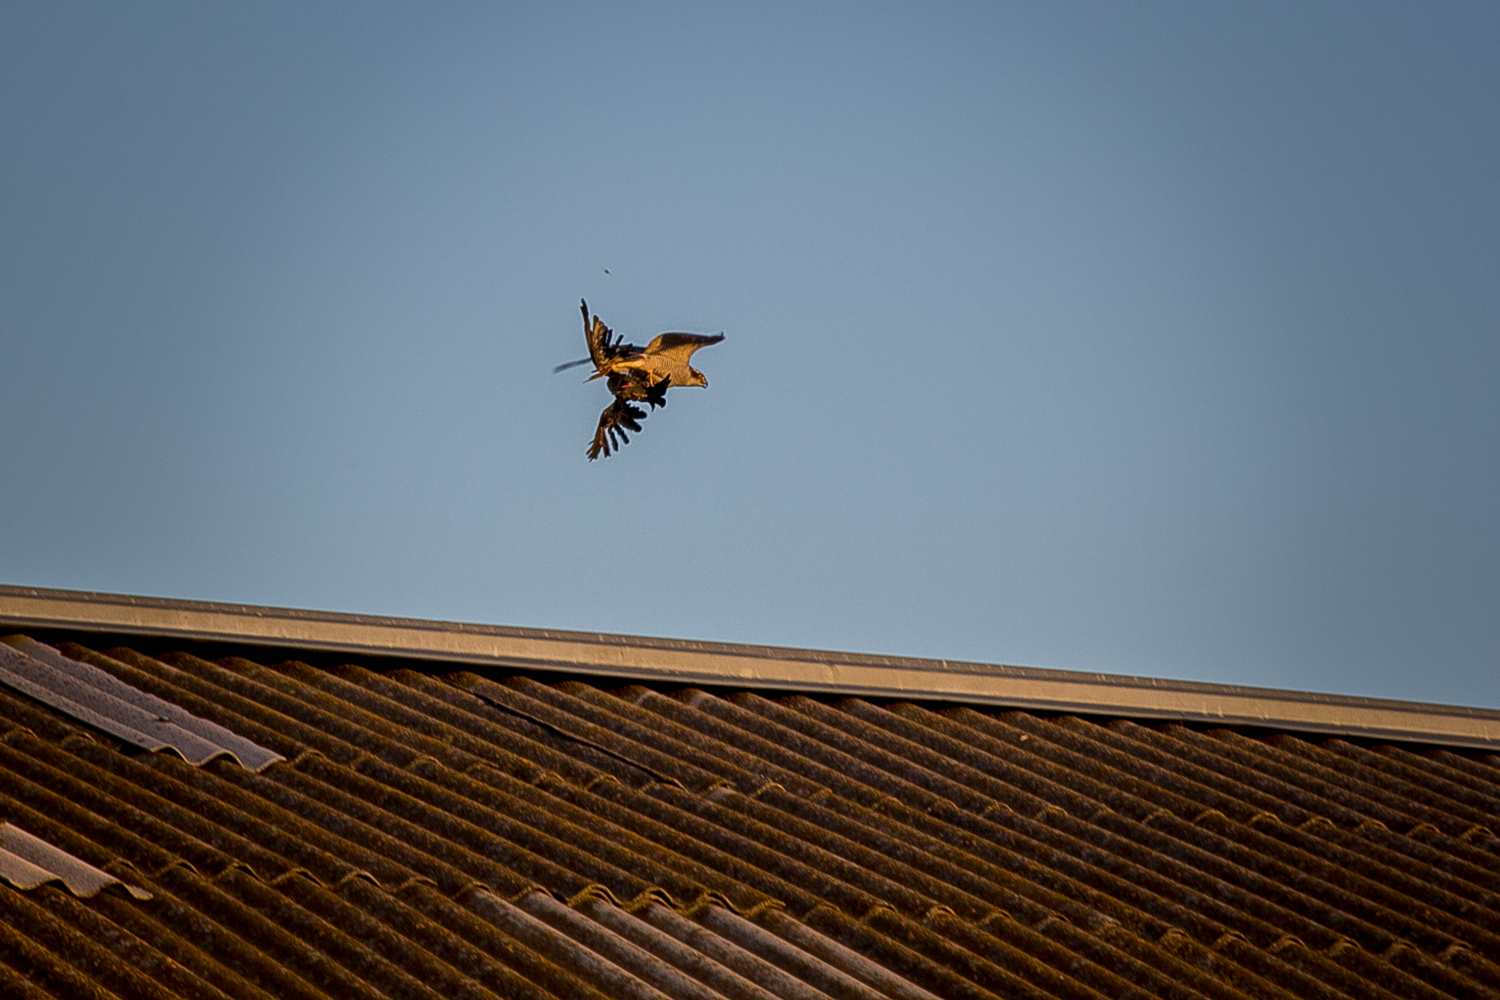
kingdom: Animalia
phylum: Chordata
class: Aves
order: Accipitriformes
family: Accipitridae
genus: Accipiter
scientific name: Accipiter gentilis
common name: Northern goshawk
